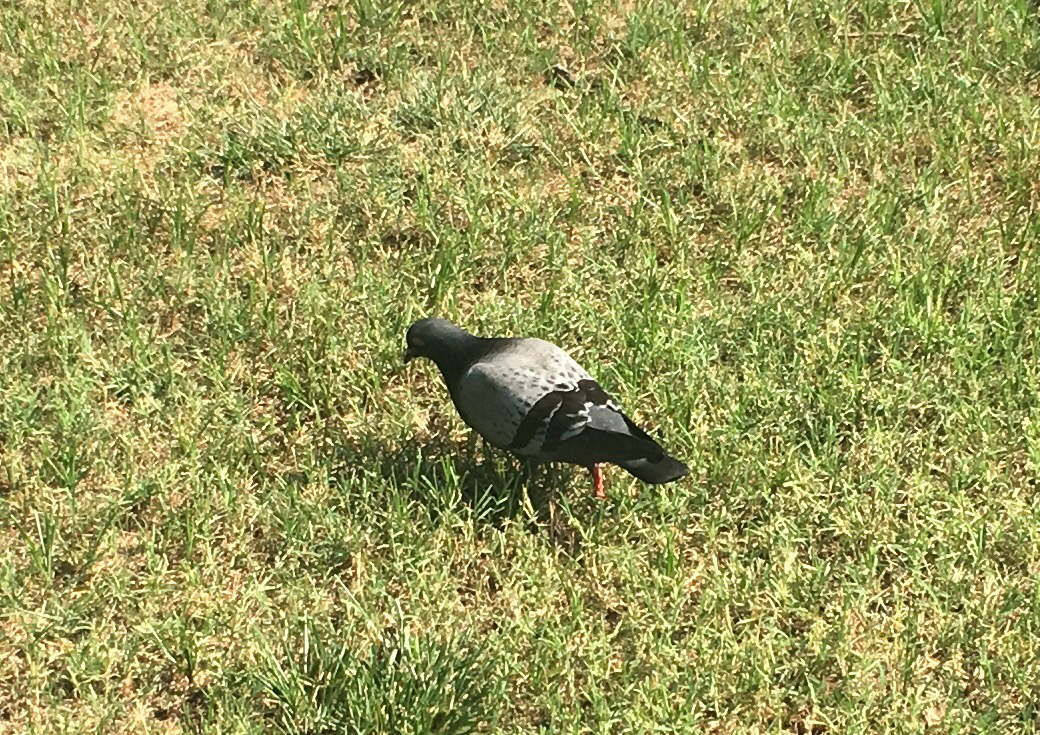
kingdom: Animalia
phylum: Chordata
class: Aves
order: Columbiformes
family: Columbidae
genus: Columba
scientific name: Columba livia
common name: Rock pigeon
